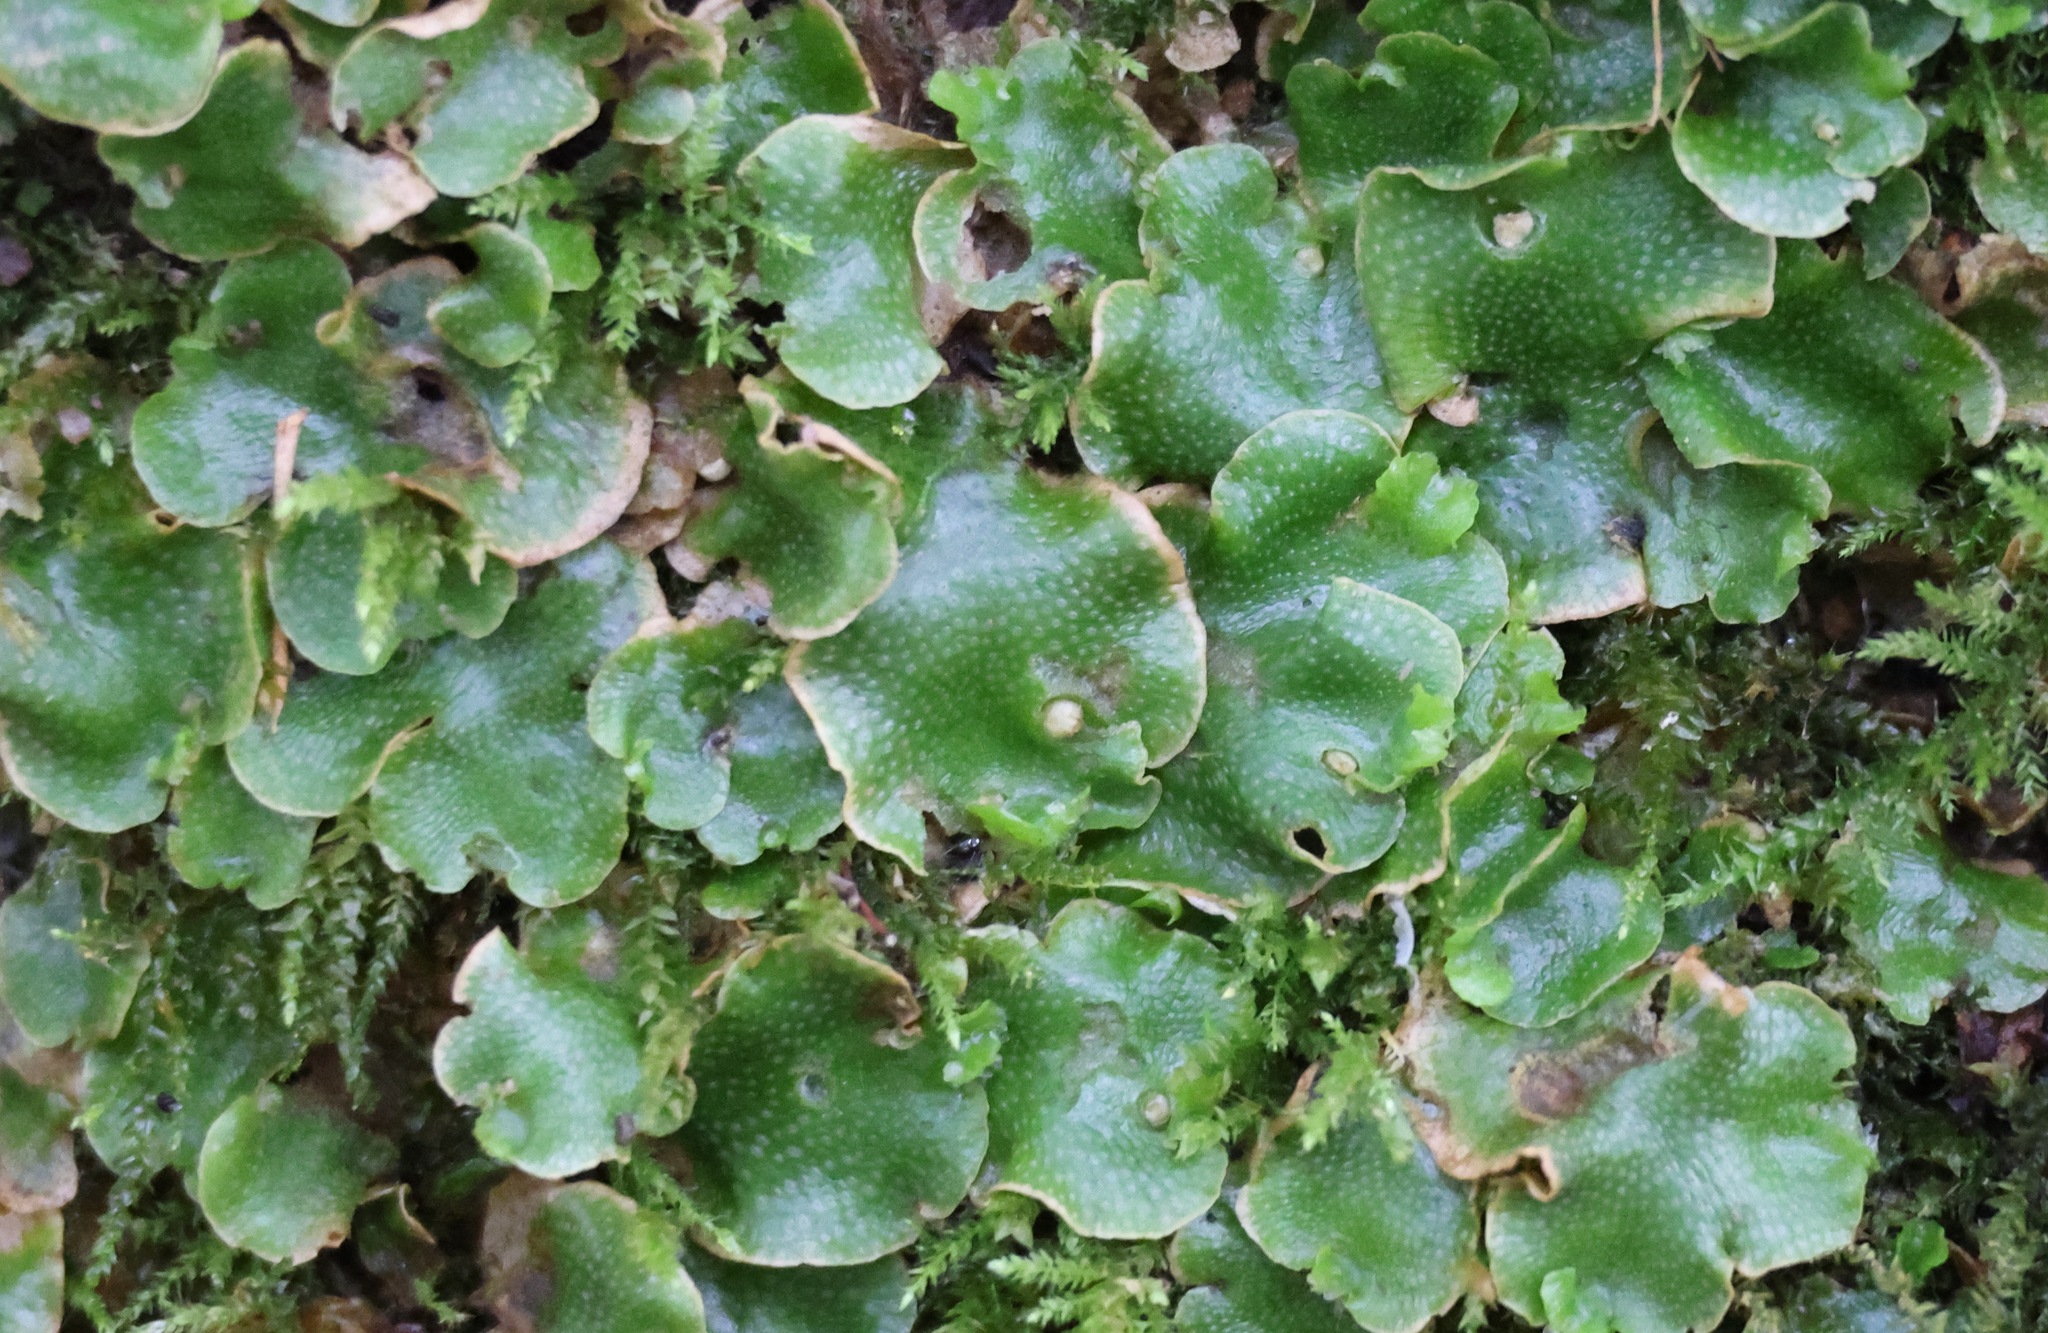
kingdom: Plantae
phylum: Marchantiophyta
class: Marchantiopsida
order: Lunulariales
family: Lunulariaceae
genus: Lunularia
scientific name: Lunularia cruciata
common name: Crescent-cup liverwort
